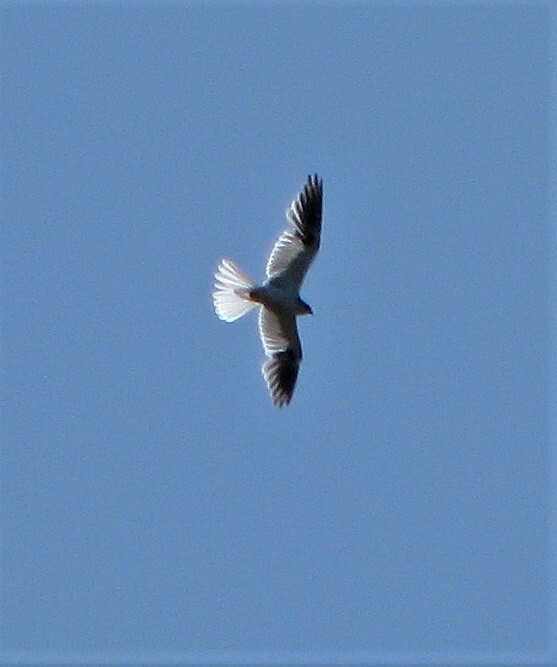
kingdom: Animalia
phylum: Chordata
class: Aves
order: Accipitriformes
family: Accipitridae
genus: Elanus
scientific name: Elanus leucurus
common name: White-tailed kite
